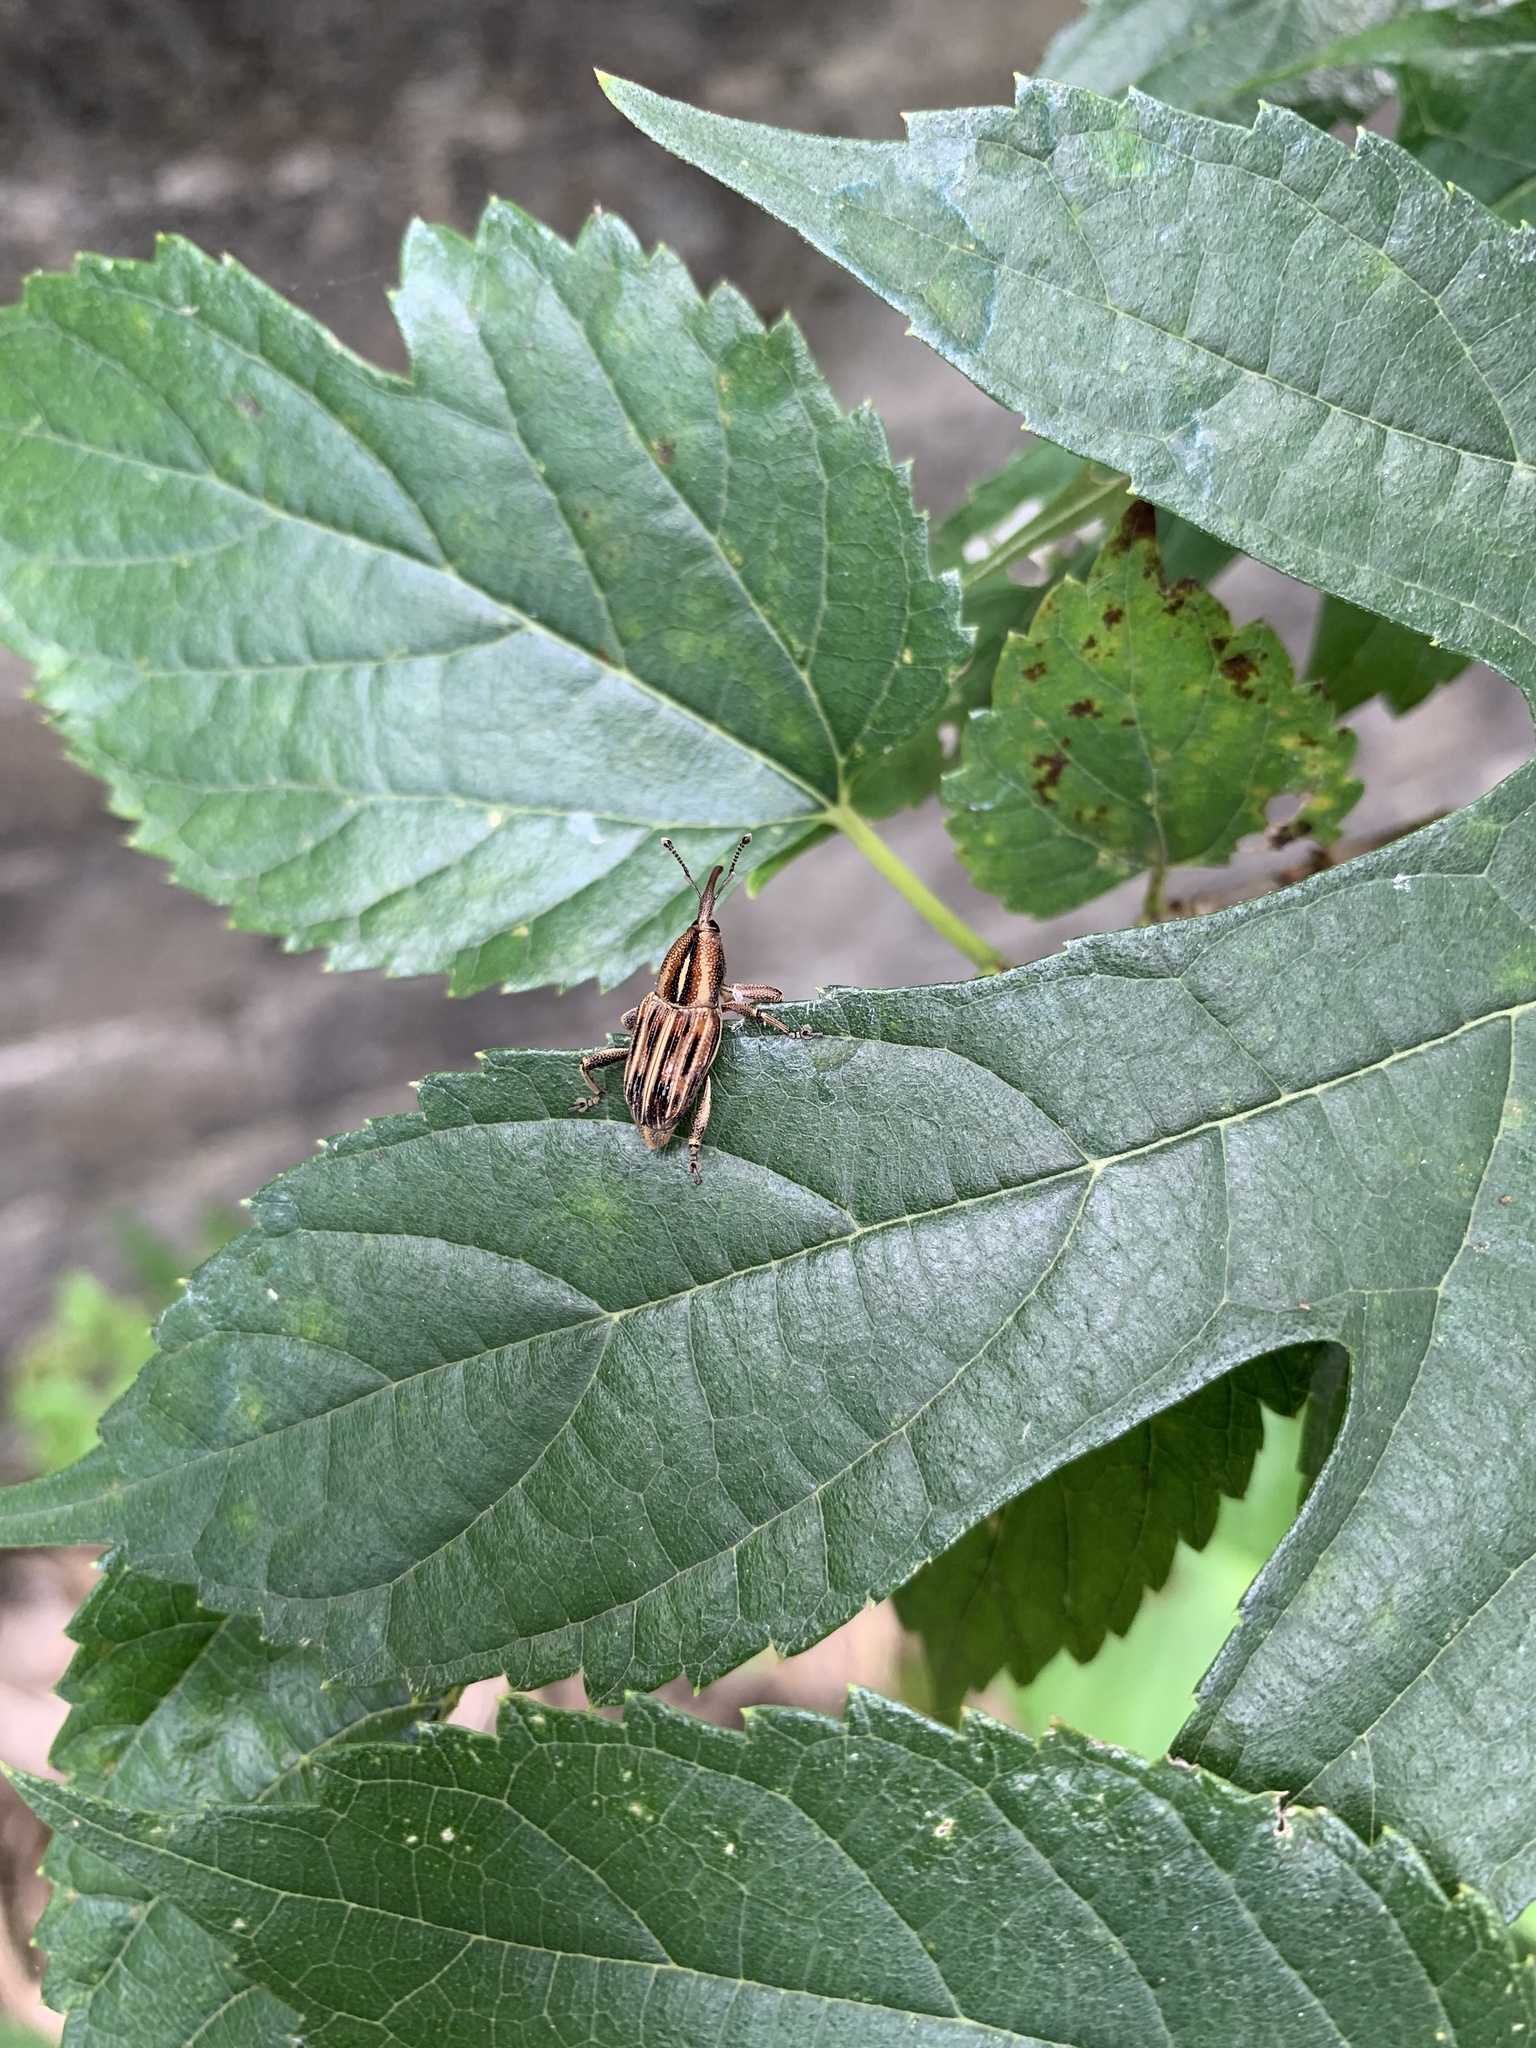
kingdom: Animalia
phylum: Arthropoda
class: Insecta
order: Coleoptera
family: Dryophthoridae
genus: Anathymus
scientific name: Anathymus lineaticollis
